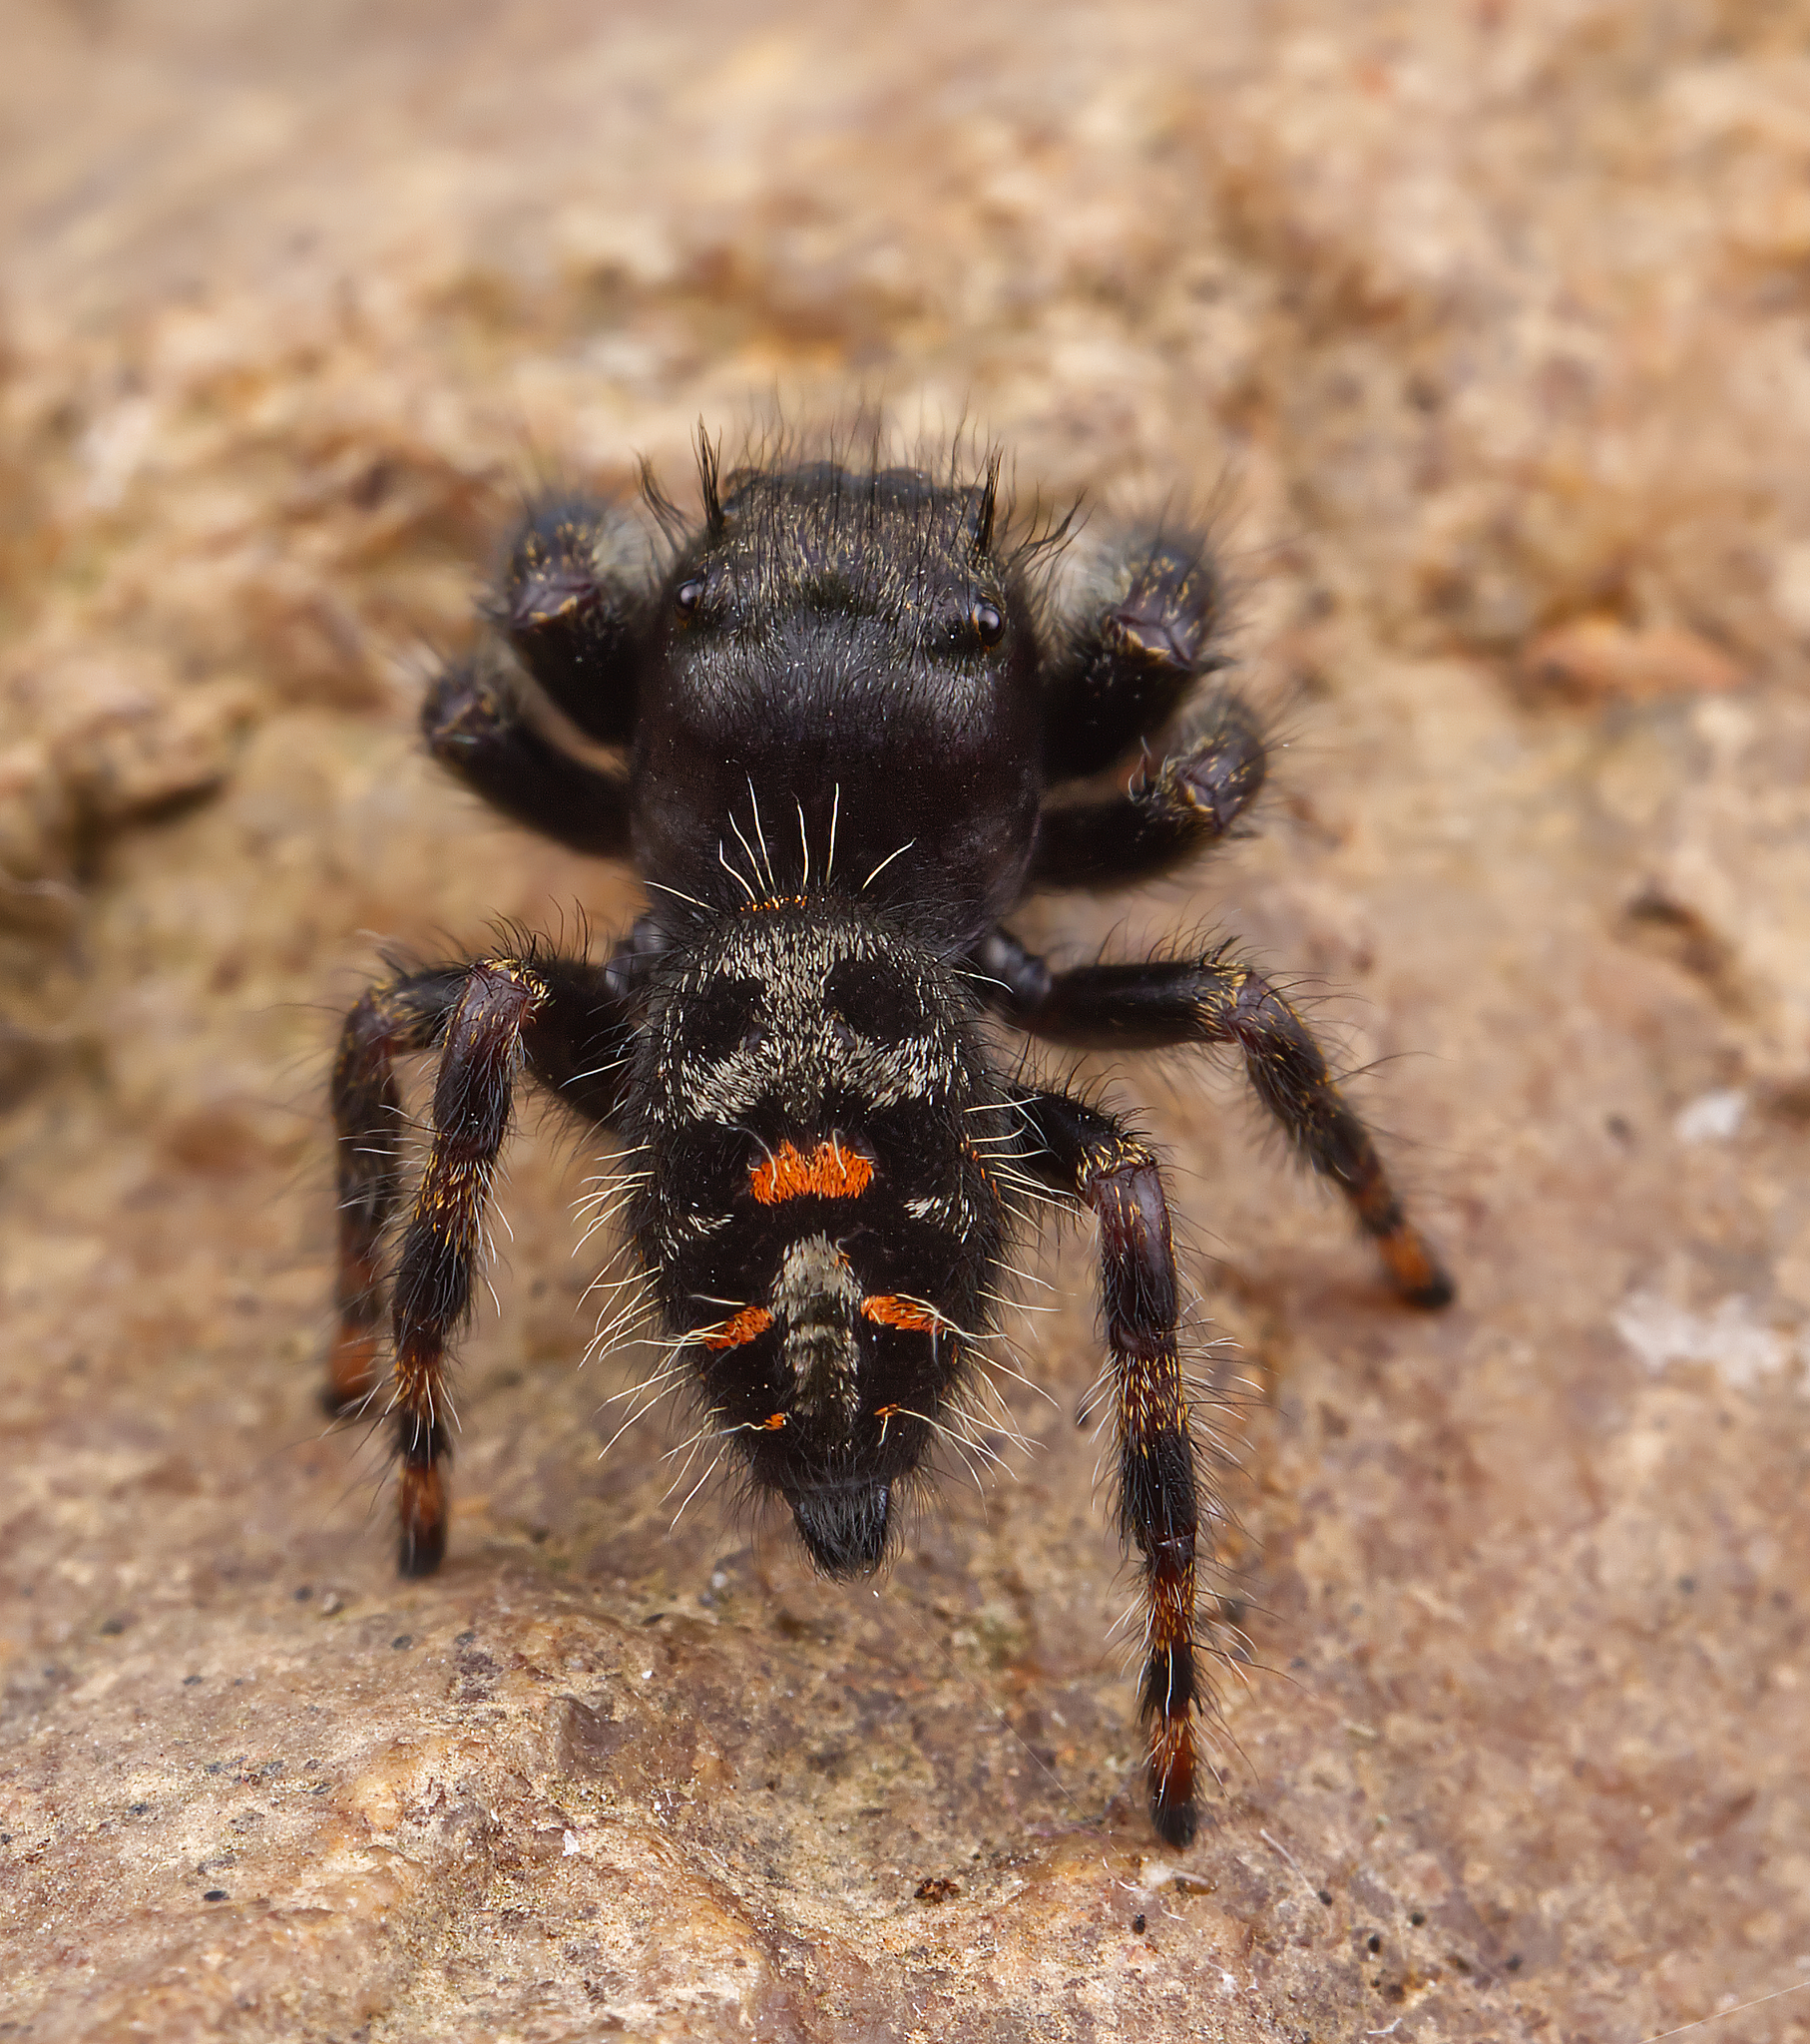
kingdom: Animalia
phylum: Arthropoda
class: Arachnida
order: Araneae
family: Salticidae
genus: Phidippus
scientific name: Phidippus audax
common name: Bold jumper
